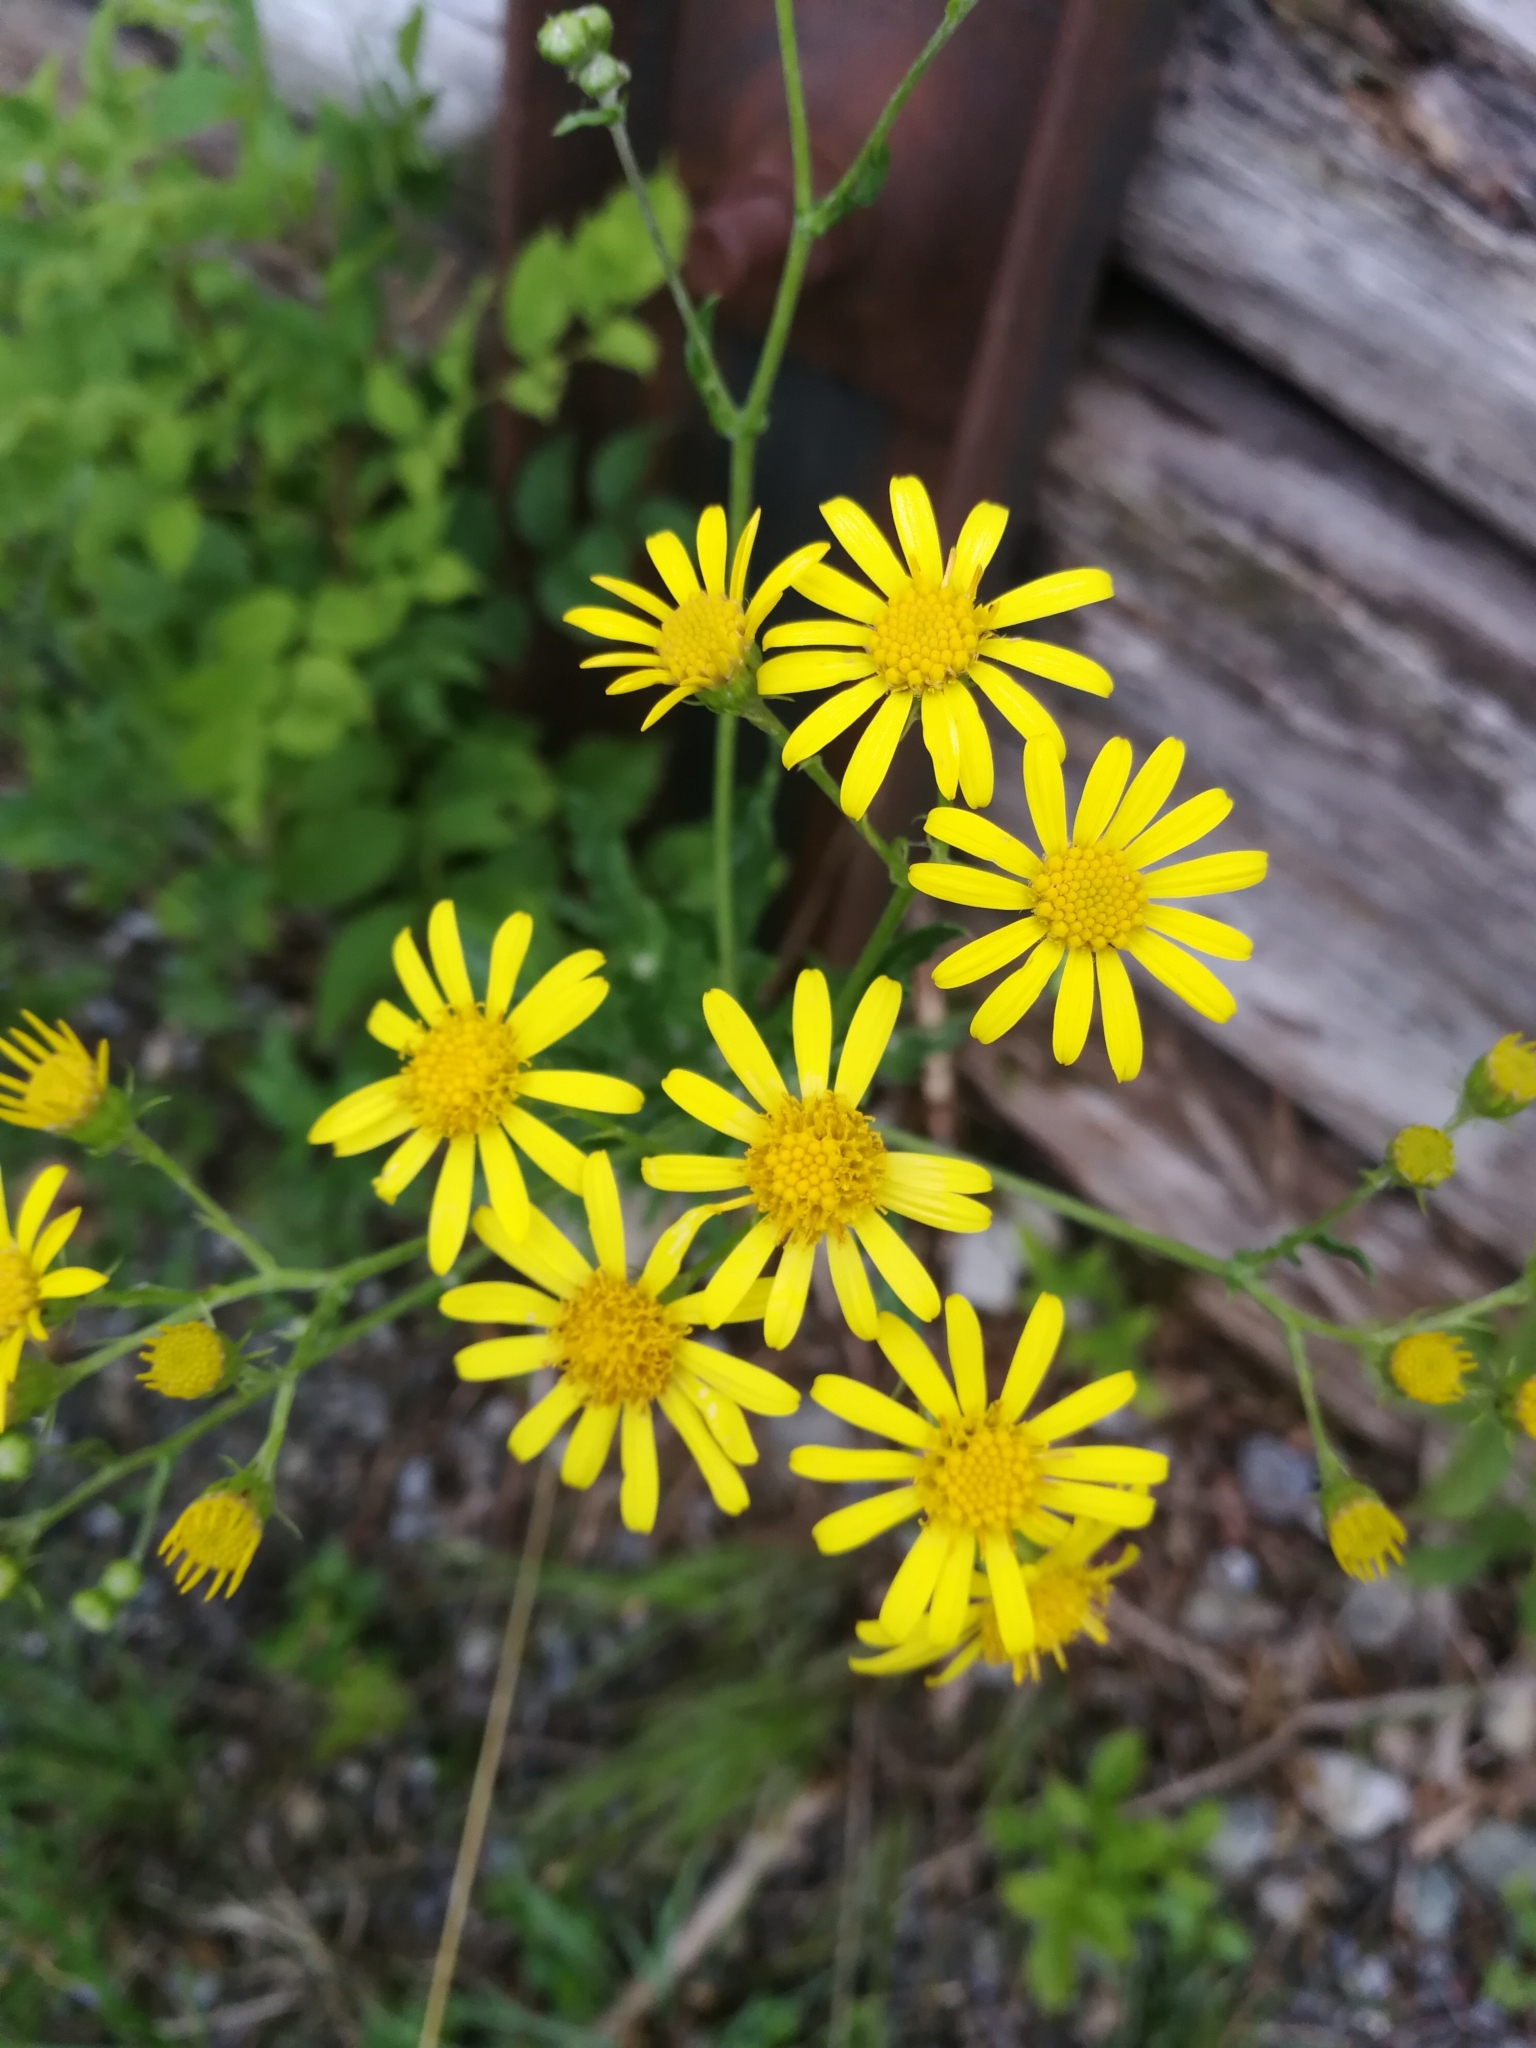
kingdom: Plantae
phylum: Tracheophyta
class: Magnoliopsida
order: Asterales
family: Asteraceae
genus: Senecio
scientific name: Senecio inaequidens
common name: Narrow-leaved ragwort
